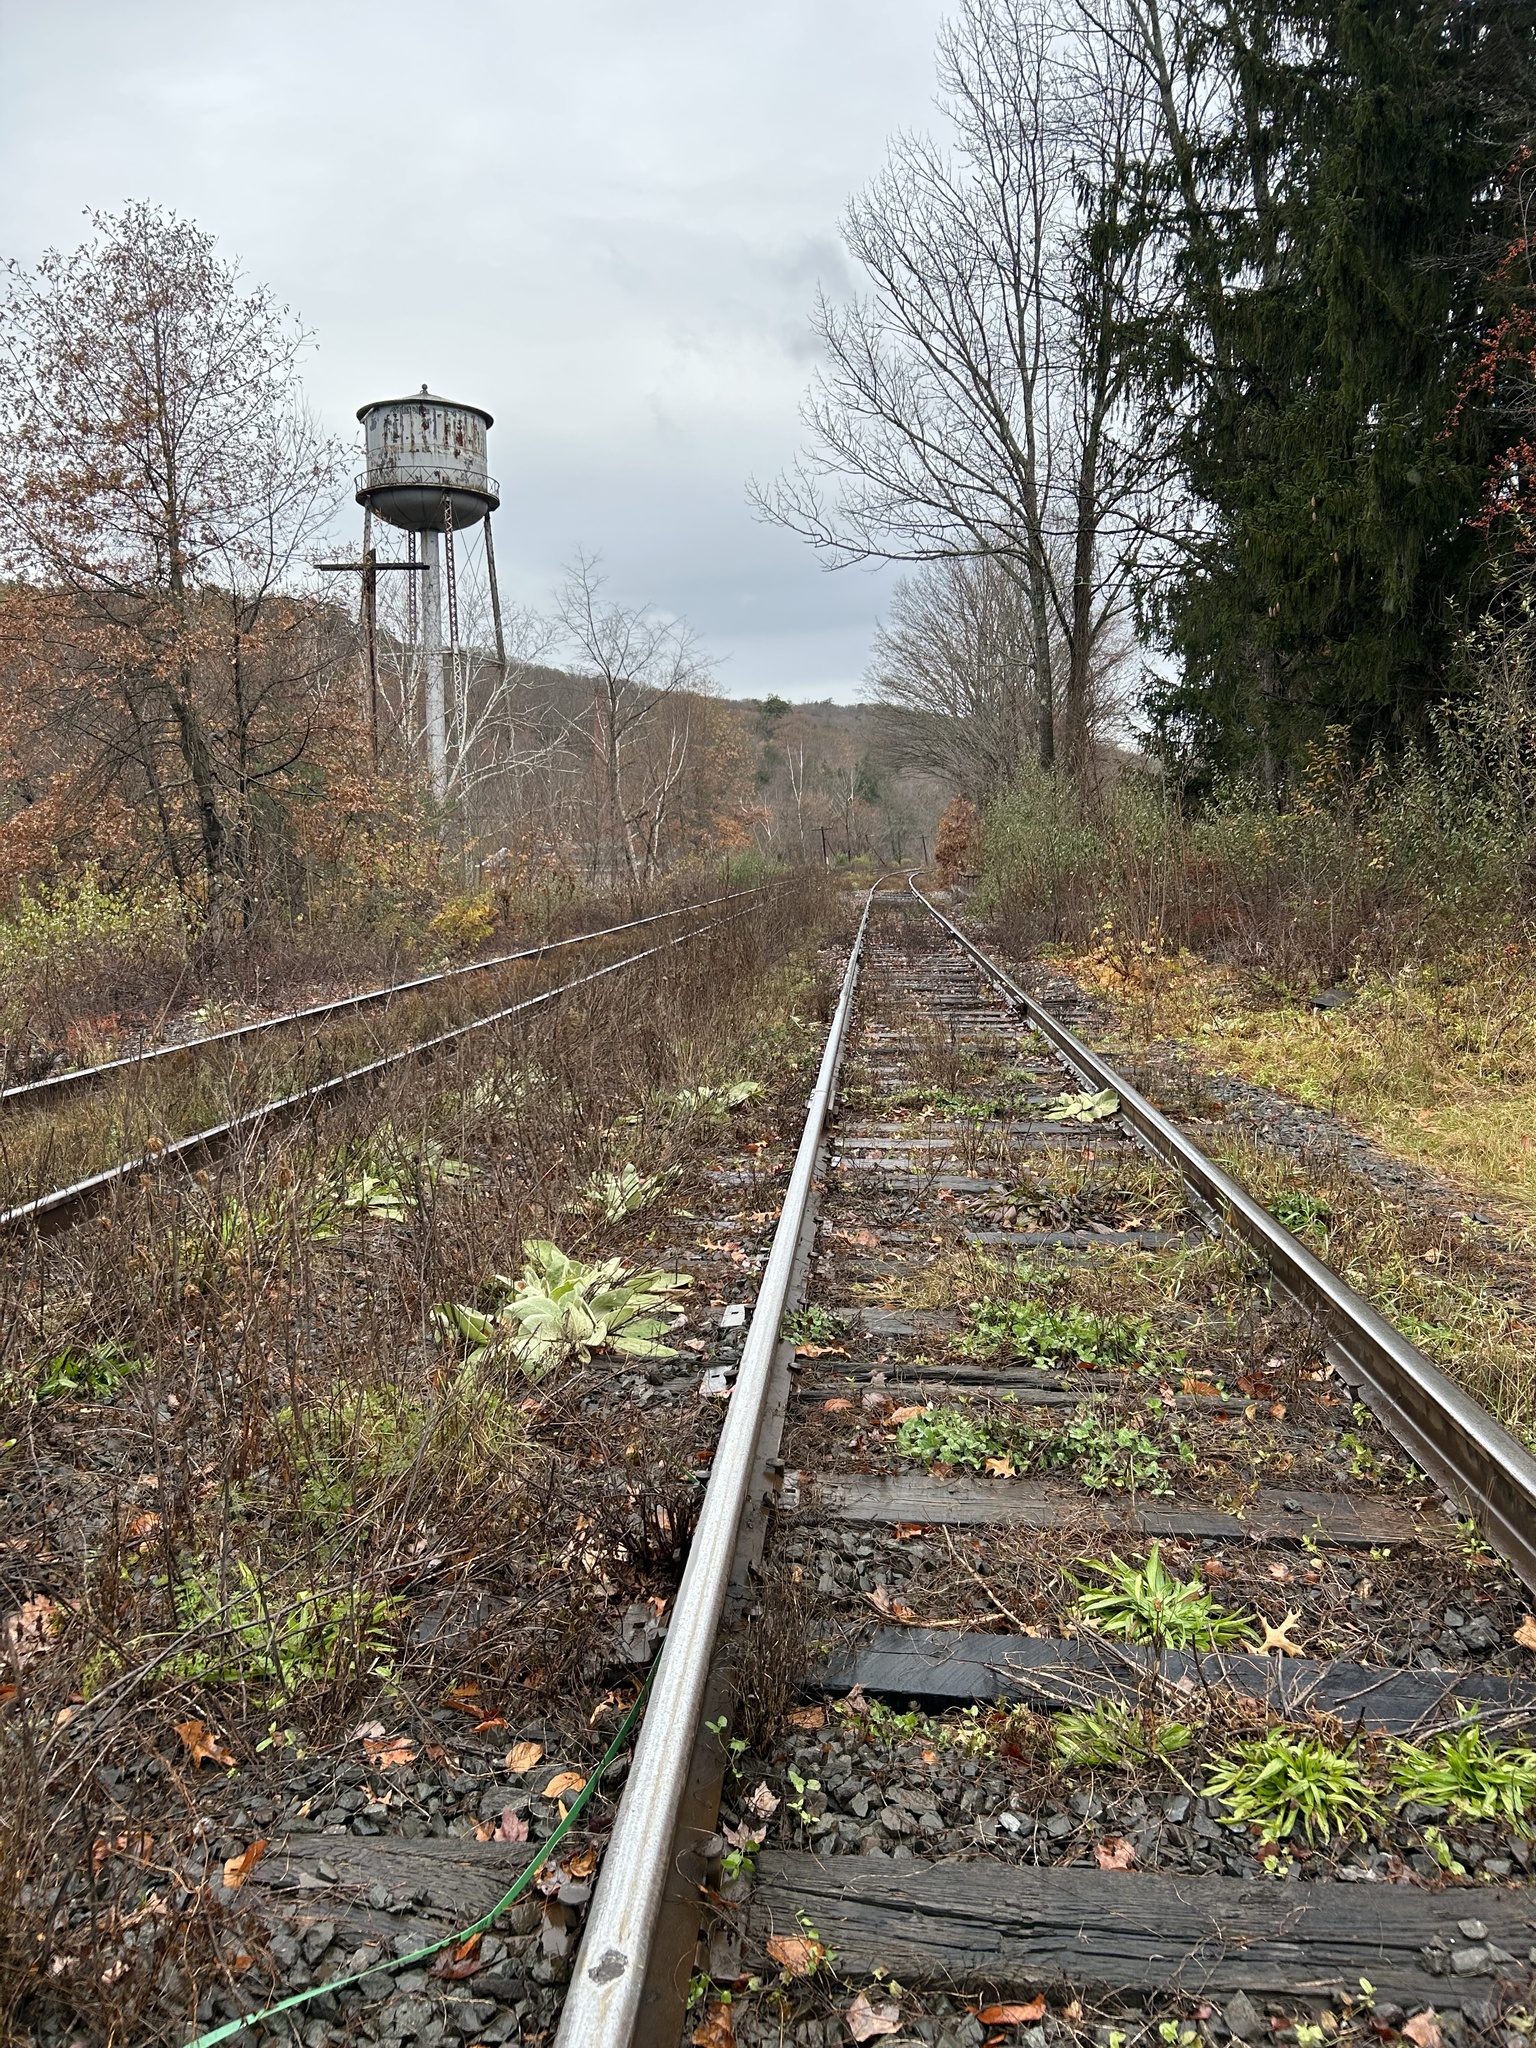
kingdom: Plantae
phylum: Tracheophyta
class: Pinopsida
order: Pinales
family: Pinaceae
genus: Picea
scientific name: Picea abies
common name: Norway spruce
